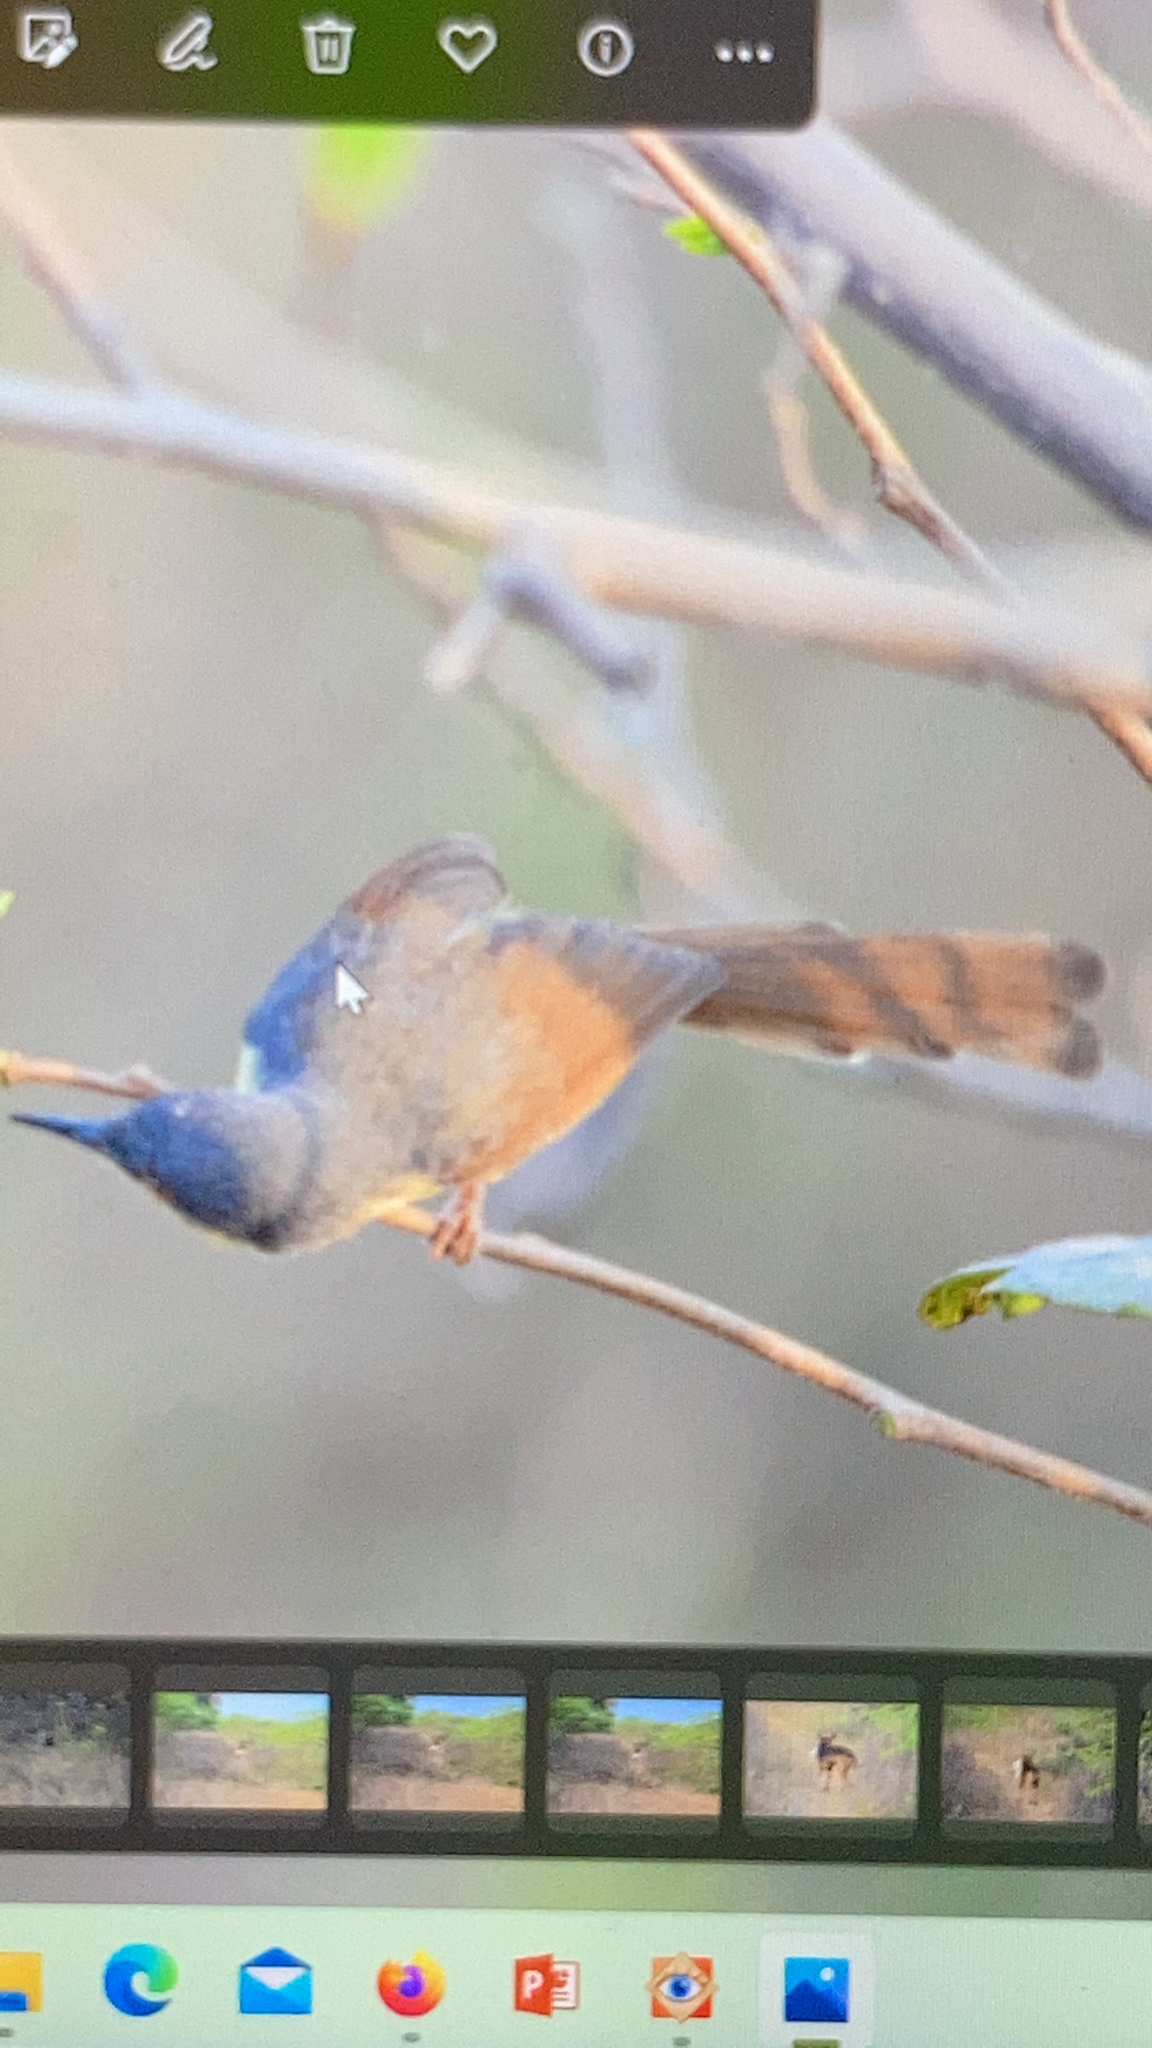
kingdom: Animalia
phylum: Chordata
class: Aves
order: Passeriformes
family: Cisticolidae
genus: Prinia
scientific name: Prinia socialis
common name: Ashy prinia
